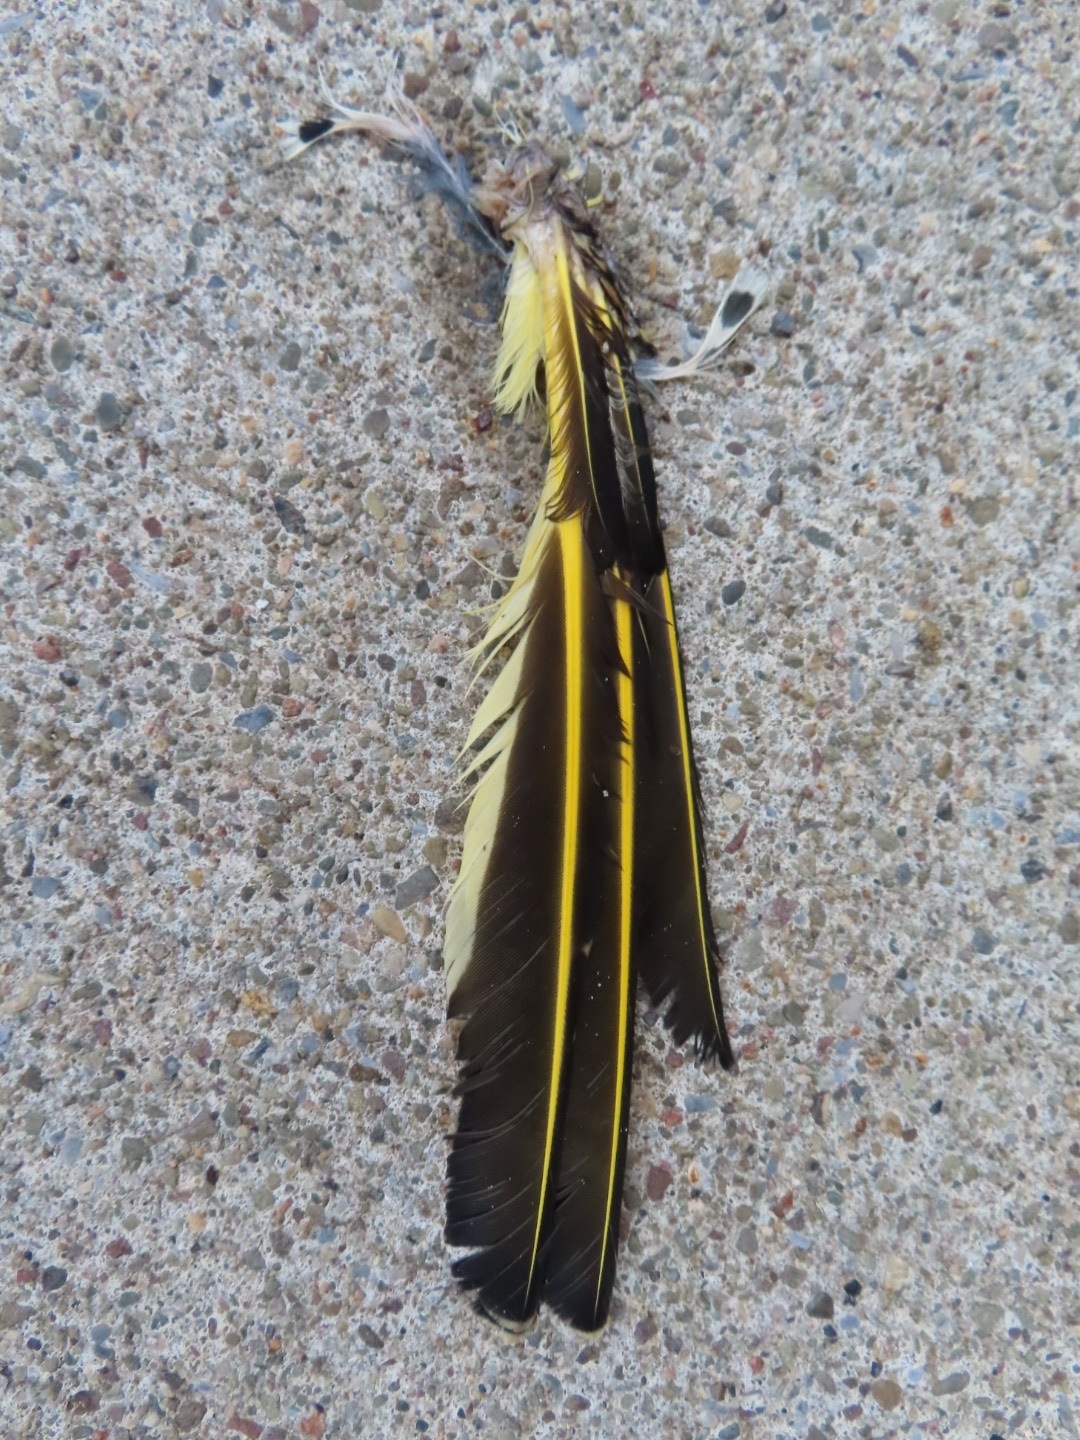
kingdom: Animalia
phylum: Chordata
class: Aves
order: Piciformes
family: Picidae
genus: Colaptes
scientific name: Colaptes auratus
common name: Northern flicker
